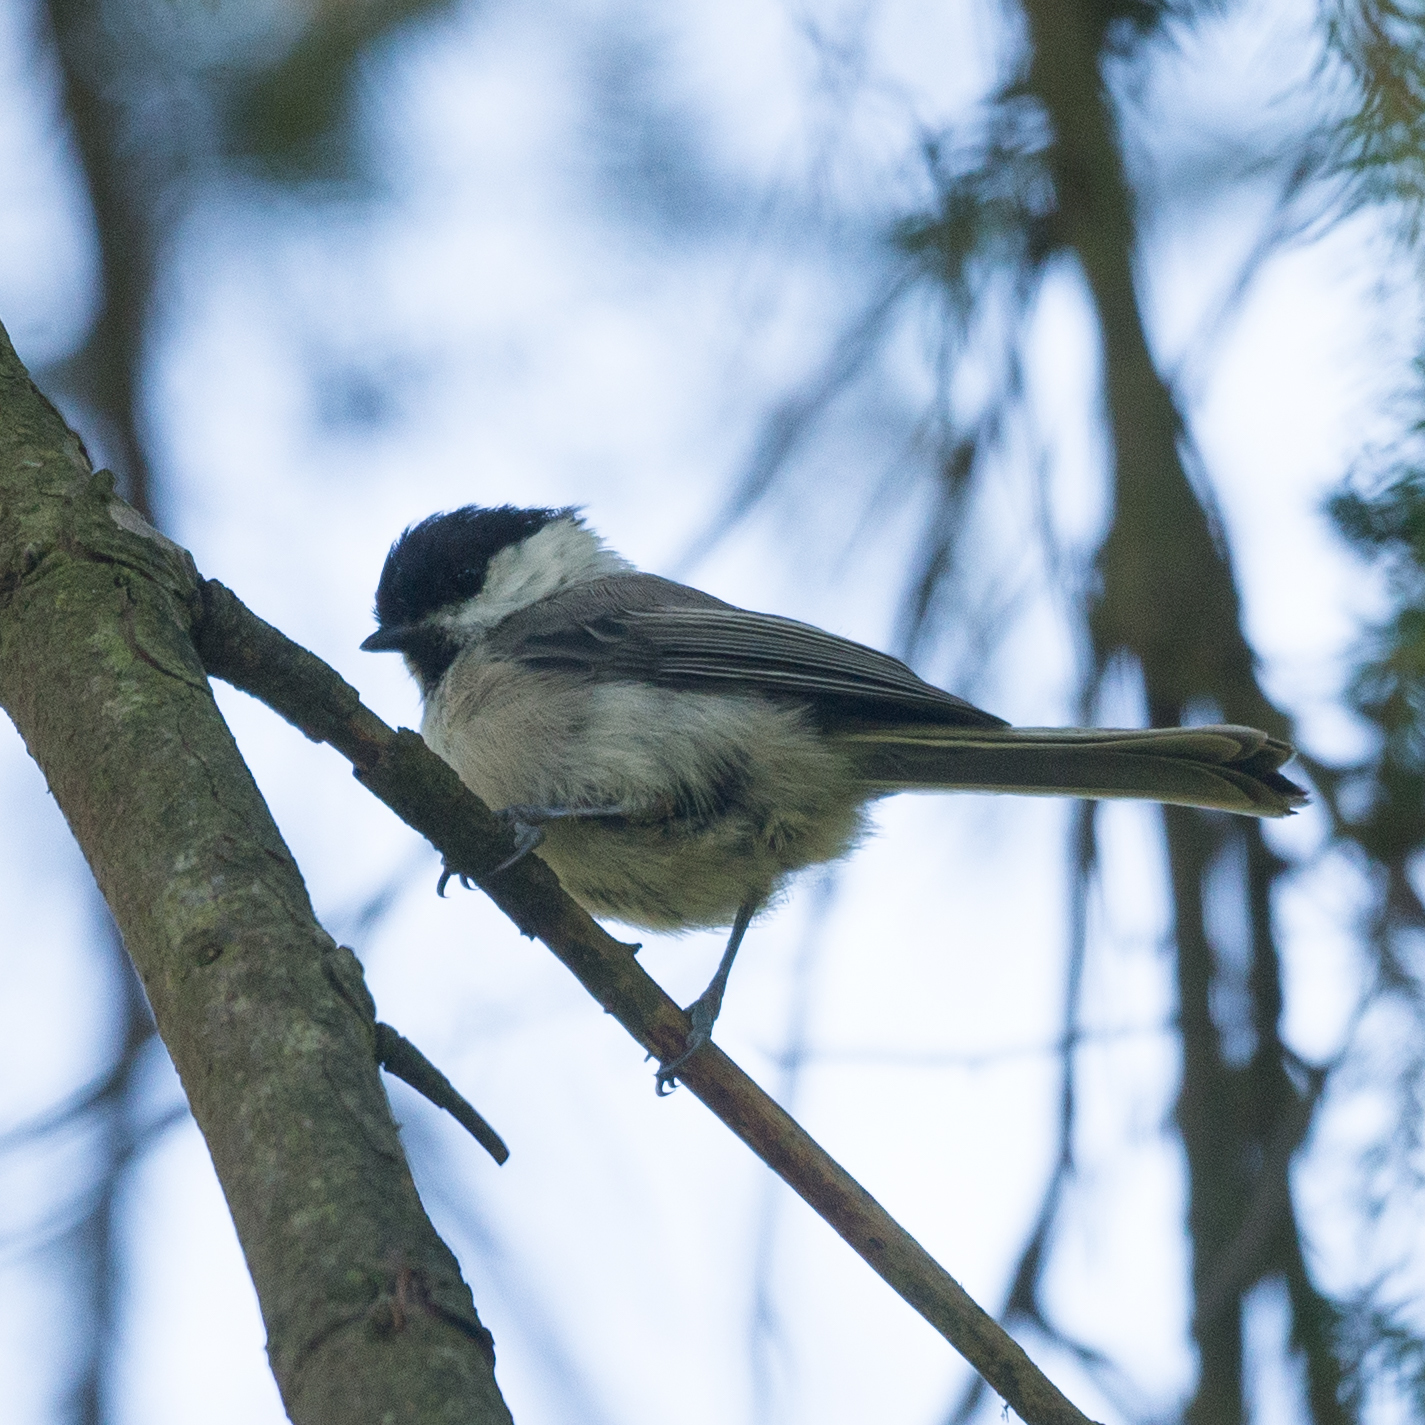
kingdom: Animalia
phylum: Chordata
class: Aves
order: Passeriformes
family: Paridae
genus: Poecile
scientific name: Poecile montanus
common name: Willow tit
